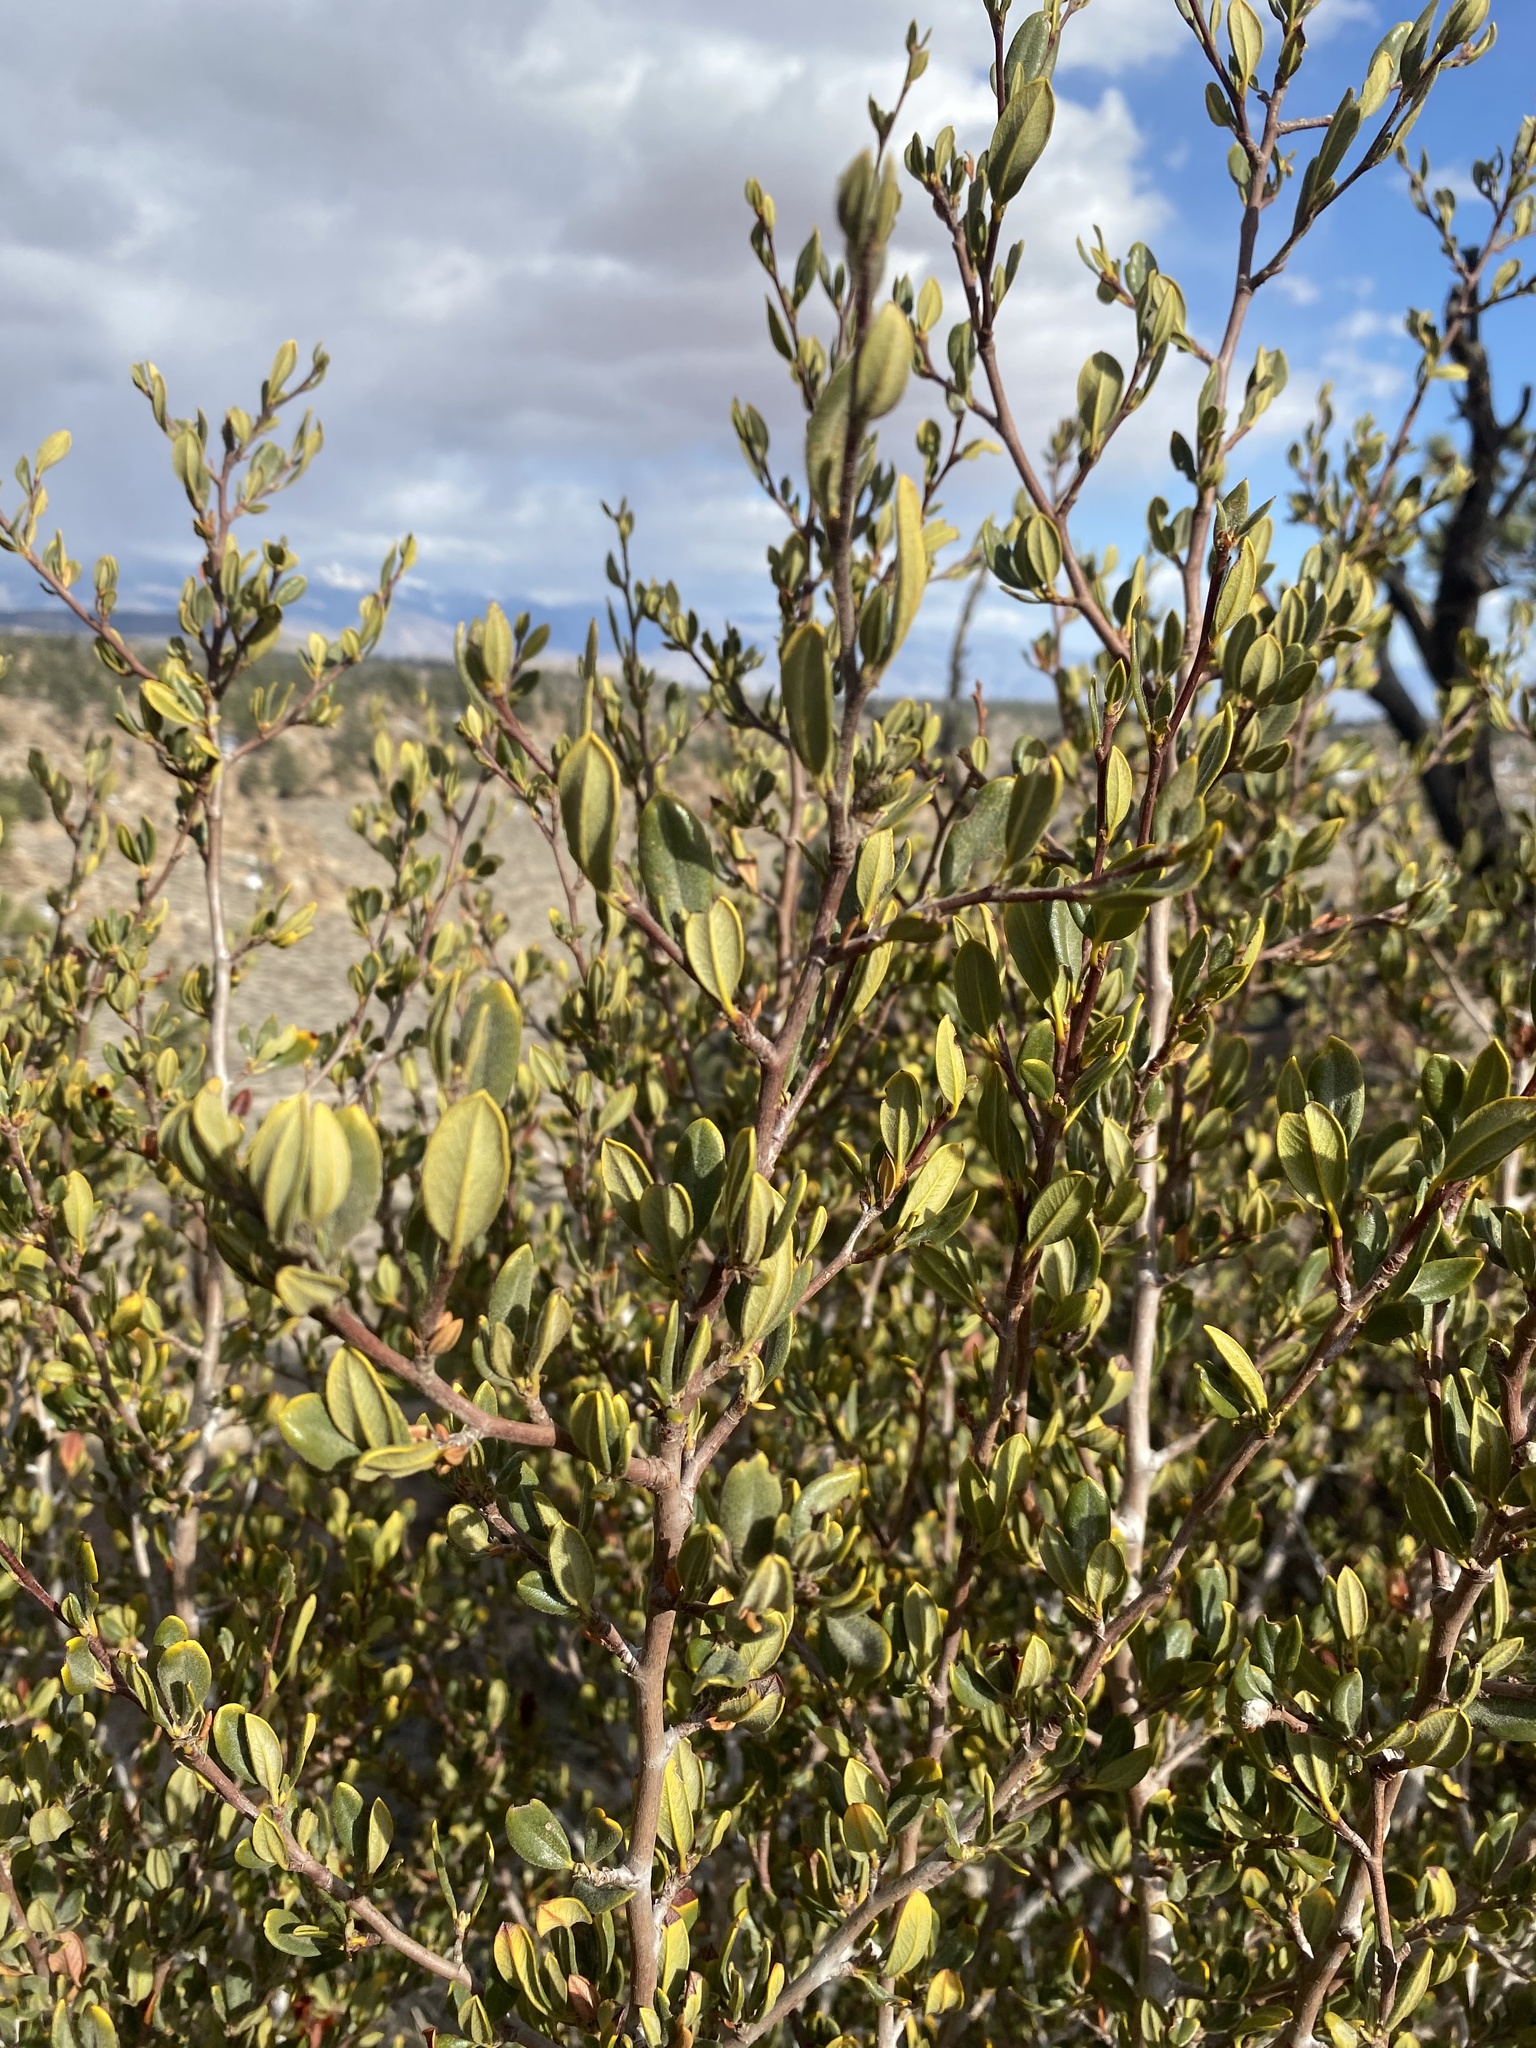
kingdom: Plantae
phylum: Tracheophyta
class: Magnoliopsida
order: Rosales
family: Rosaceae
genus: Cercocarpus
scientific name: Cercocarpus ledifolius
